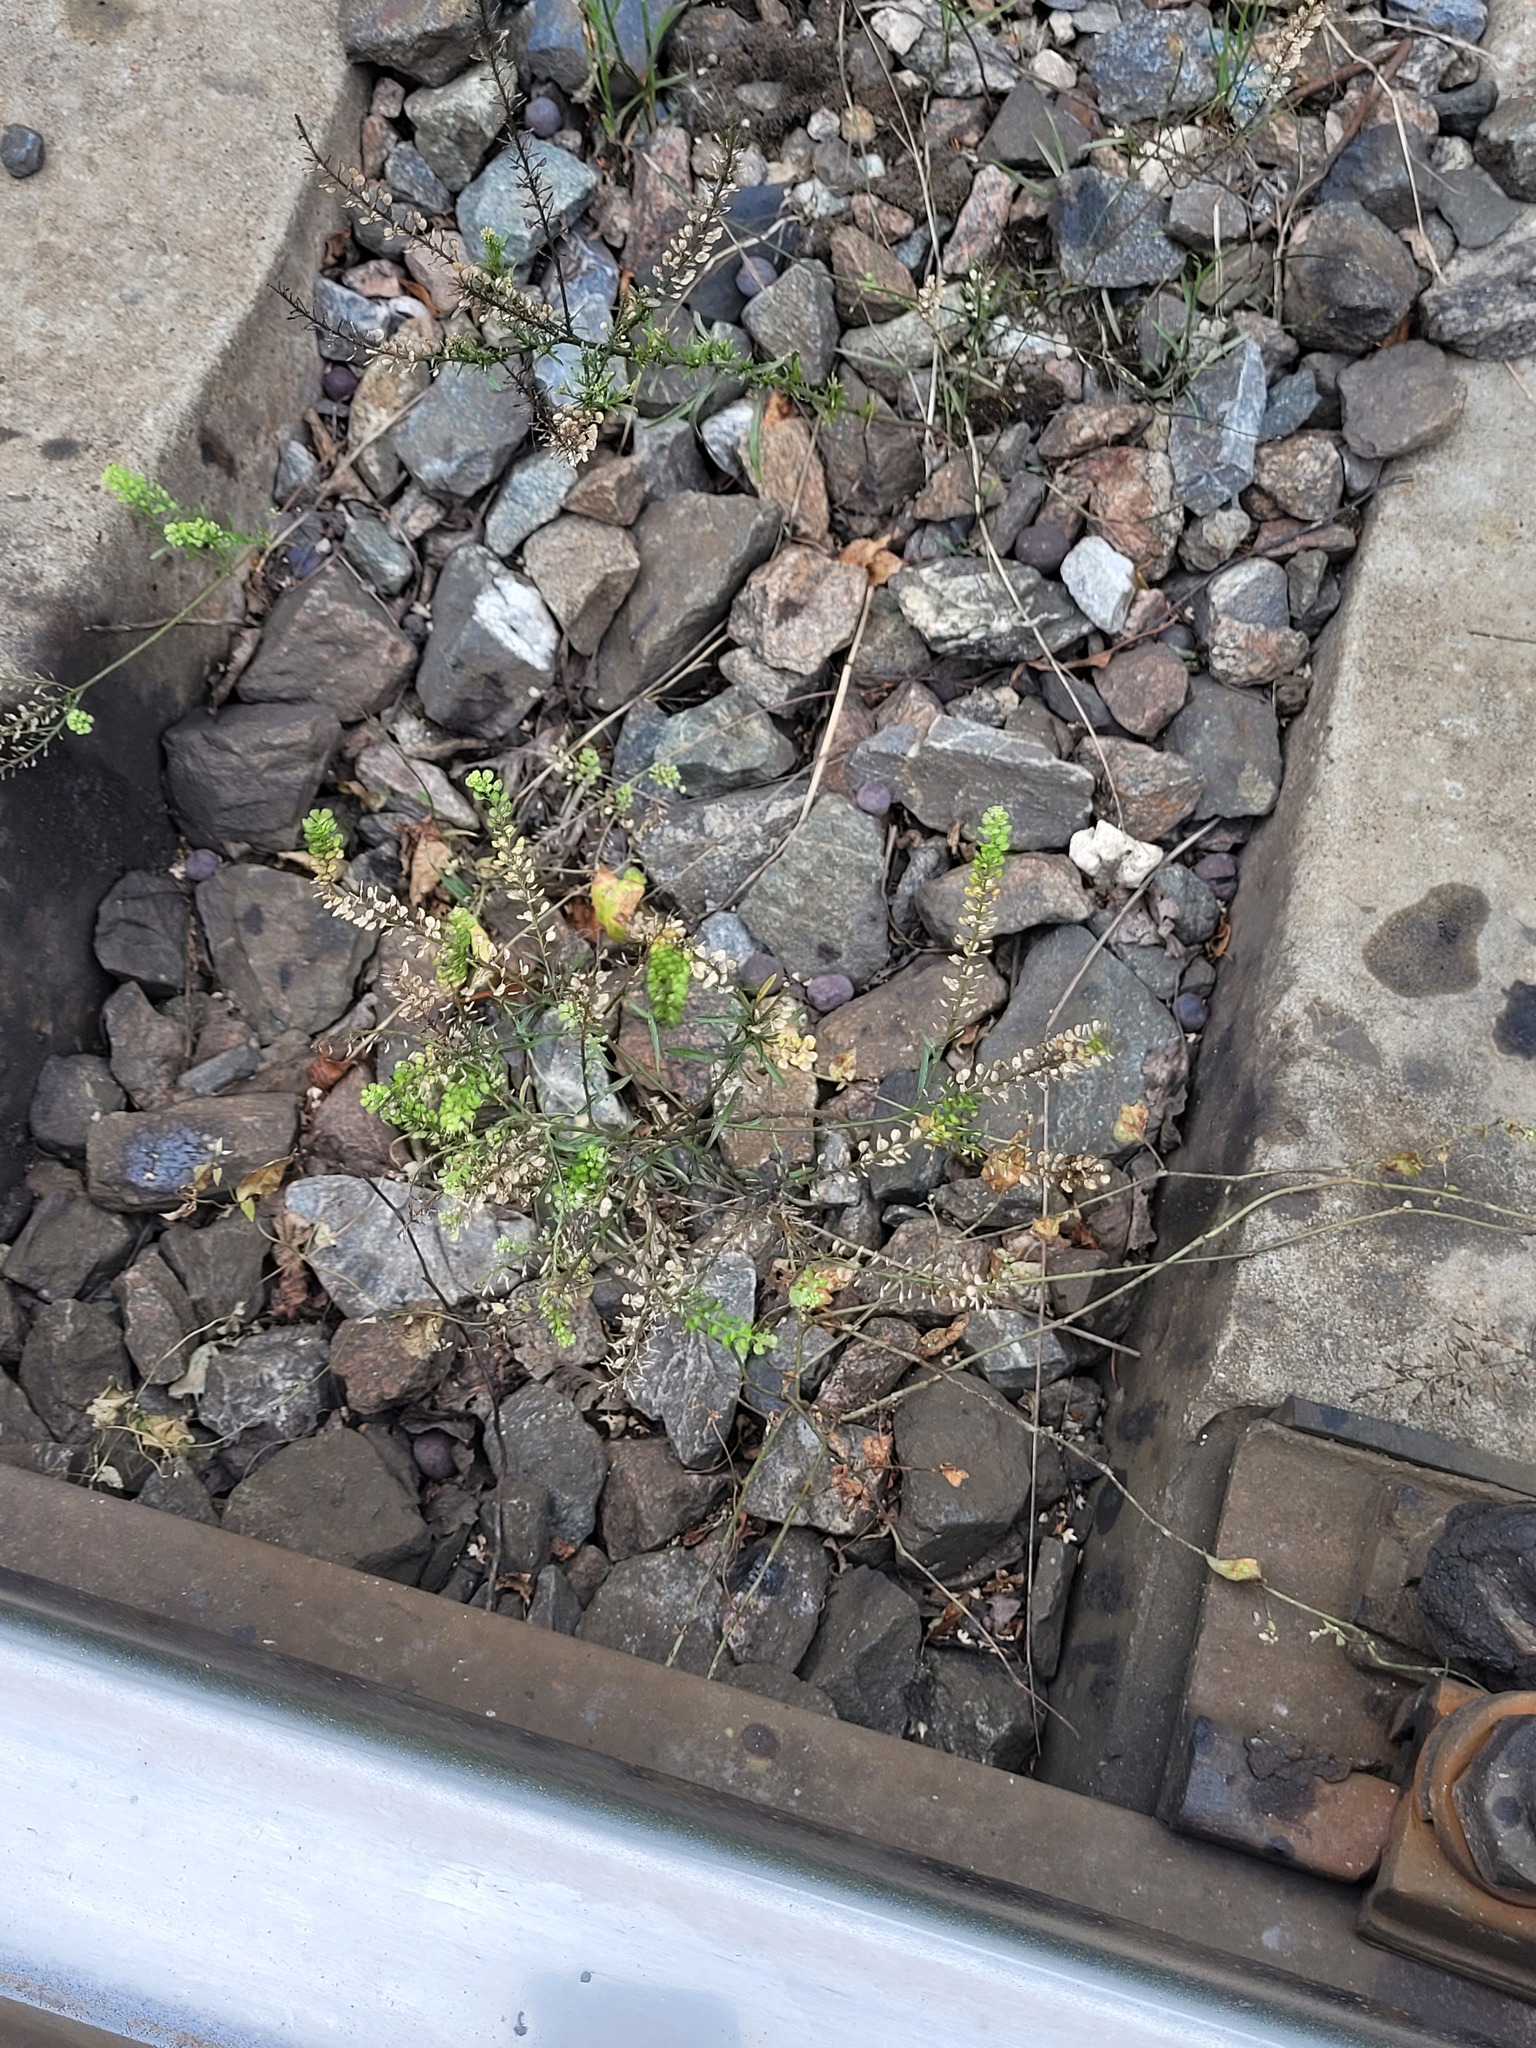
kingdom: Plantae
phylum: Tracheophyta
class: Magnoliopsida
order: Brassicales
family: Brassicaceae
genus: Lepidium
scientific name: Lepidium densiflorum
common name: Miner's pepperwort
